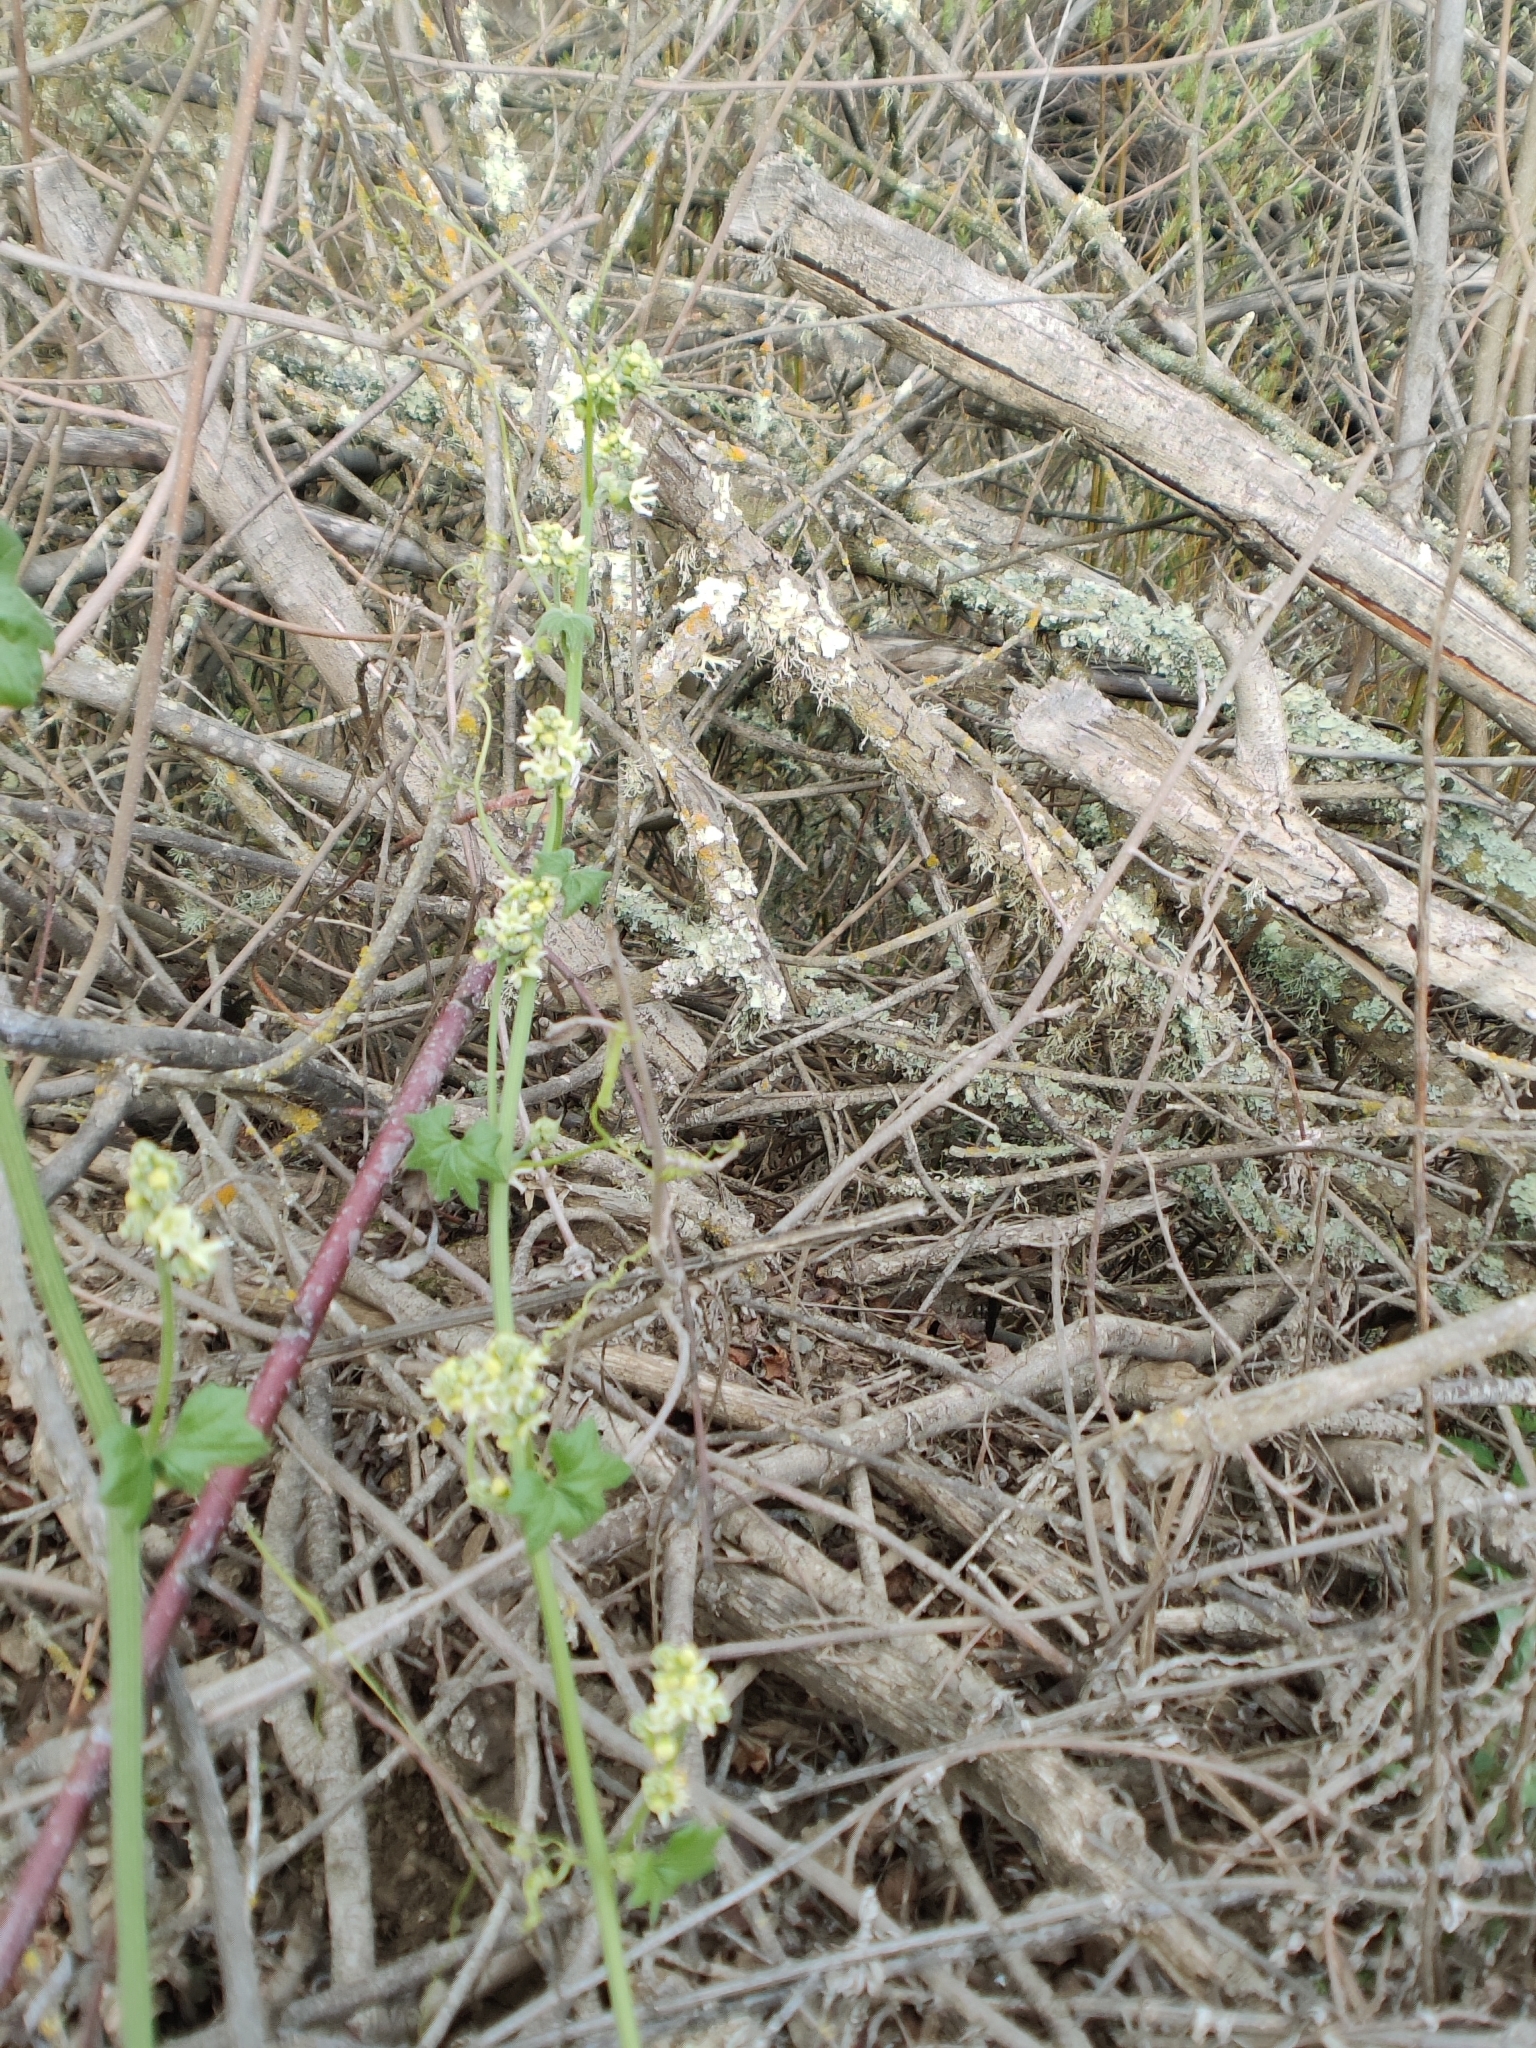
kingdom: Plantae
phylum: Tracheophyta
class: Magnoliopsida
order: Cucurbitales
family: Cucurbitaceae
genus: Marah
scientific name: Marah fabacea
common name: California manroot
